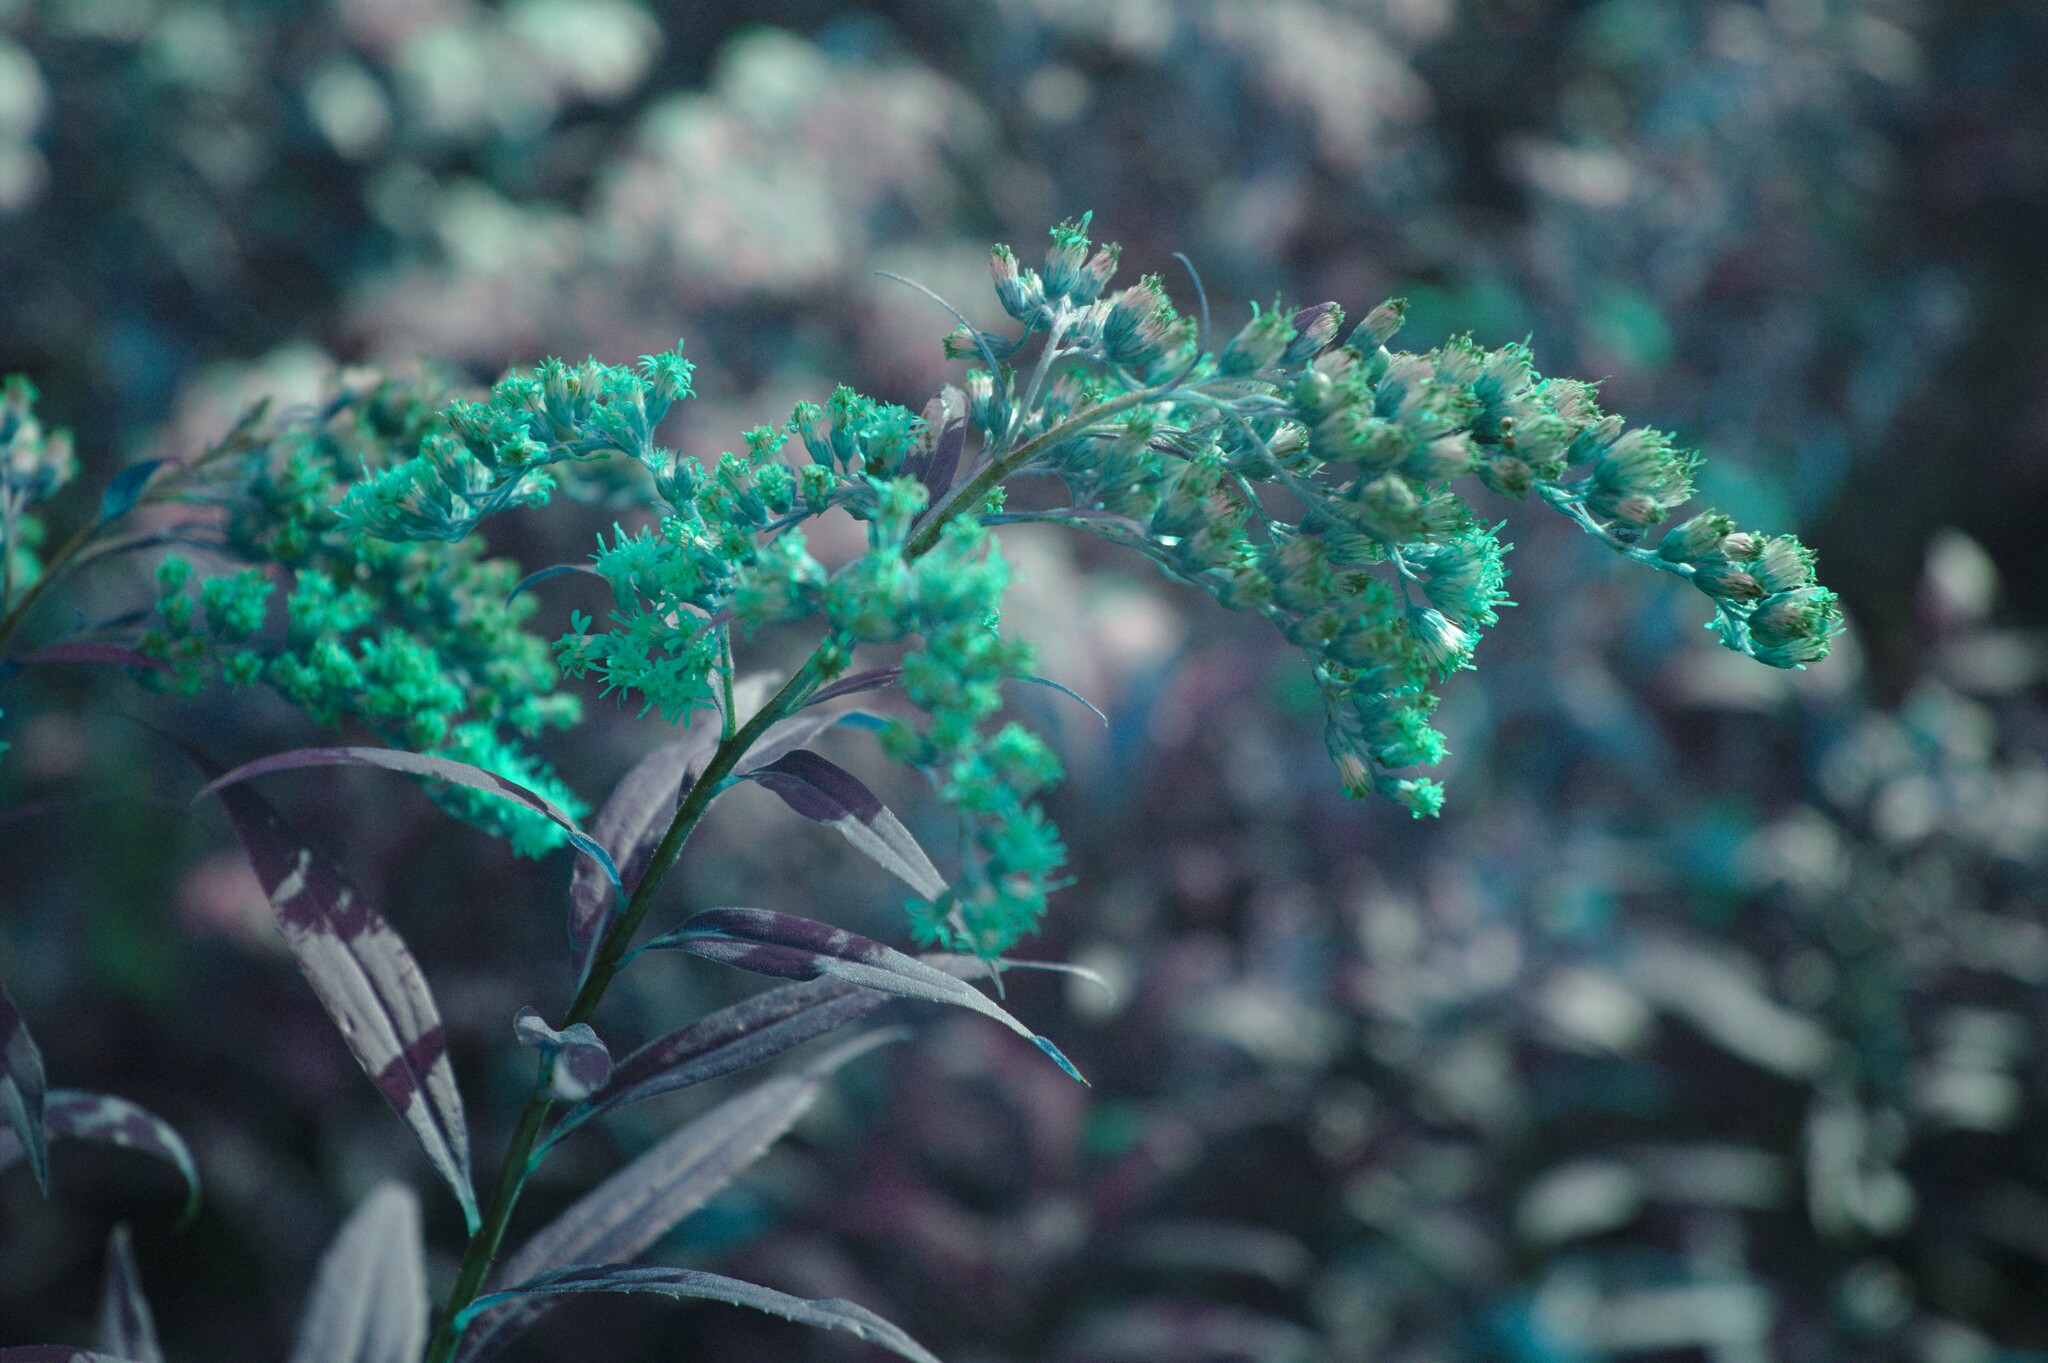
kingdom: Plantae
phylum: Tracheophyta
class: Magnoliopsida
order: Asterales
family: Asteraceae
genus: Solidago
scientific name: Solidago gigantea
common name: Giant goldenrod
